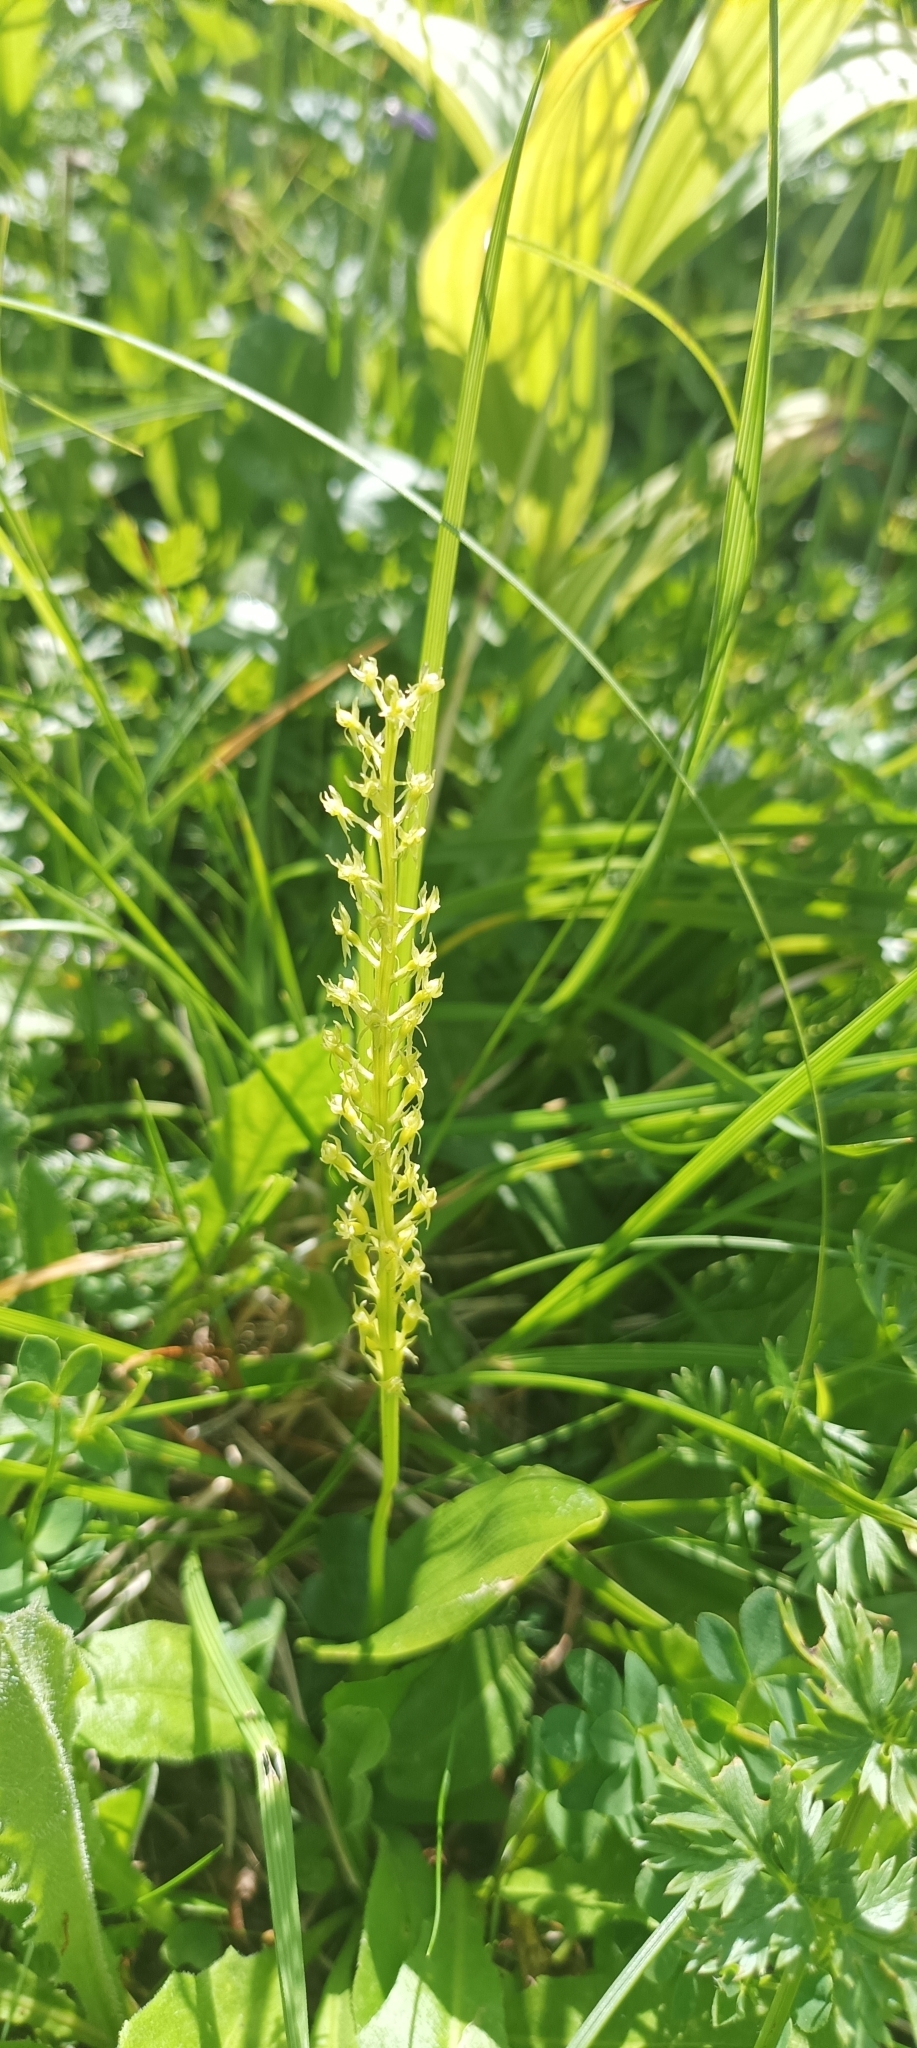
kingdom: Plantae
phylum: Tracheophyta
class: Liliopsida
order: Asparagales
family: Orchidaceae
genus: Malaxis
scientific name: Malaxis monophyllos
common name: White adder's-mouth
